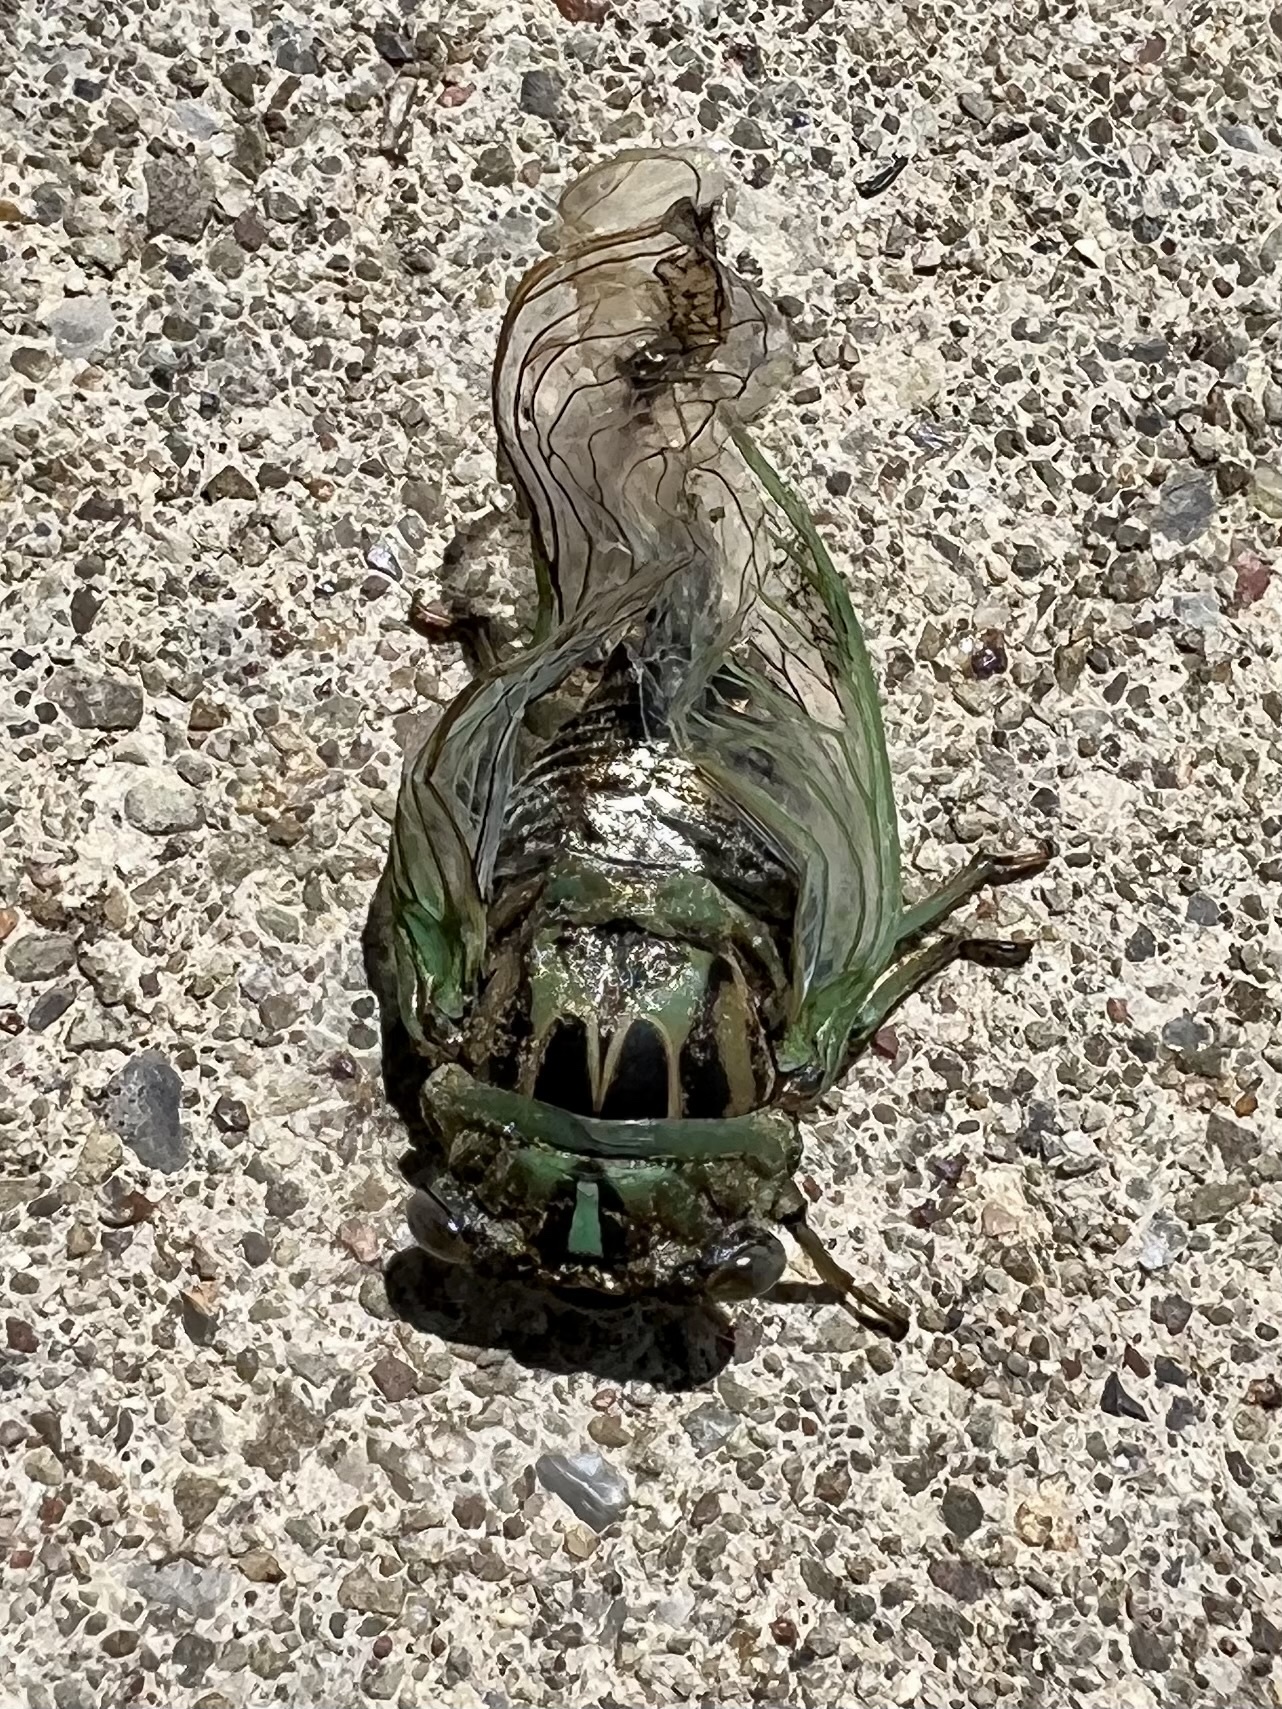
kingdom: Animalia
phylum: Arthropoda
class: Insecta
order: Hemiptera
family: Cicadidae
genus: Neotibicen
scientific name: Neotibicen linnei
